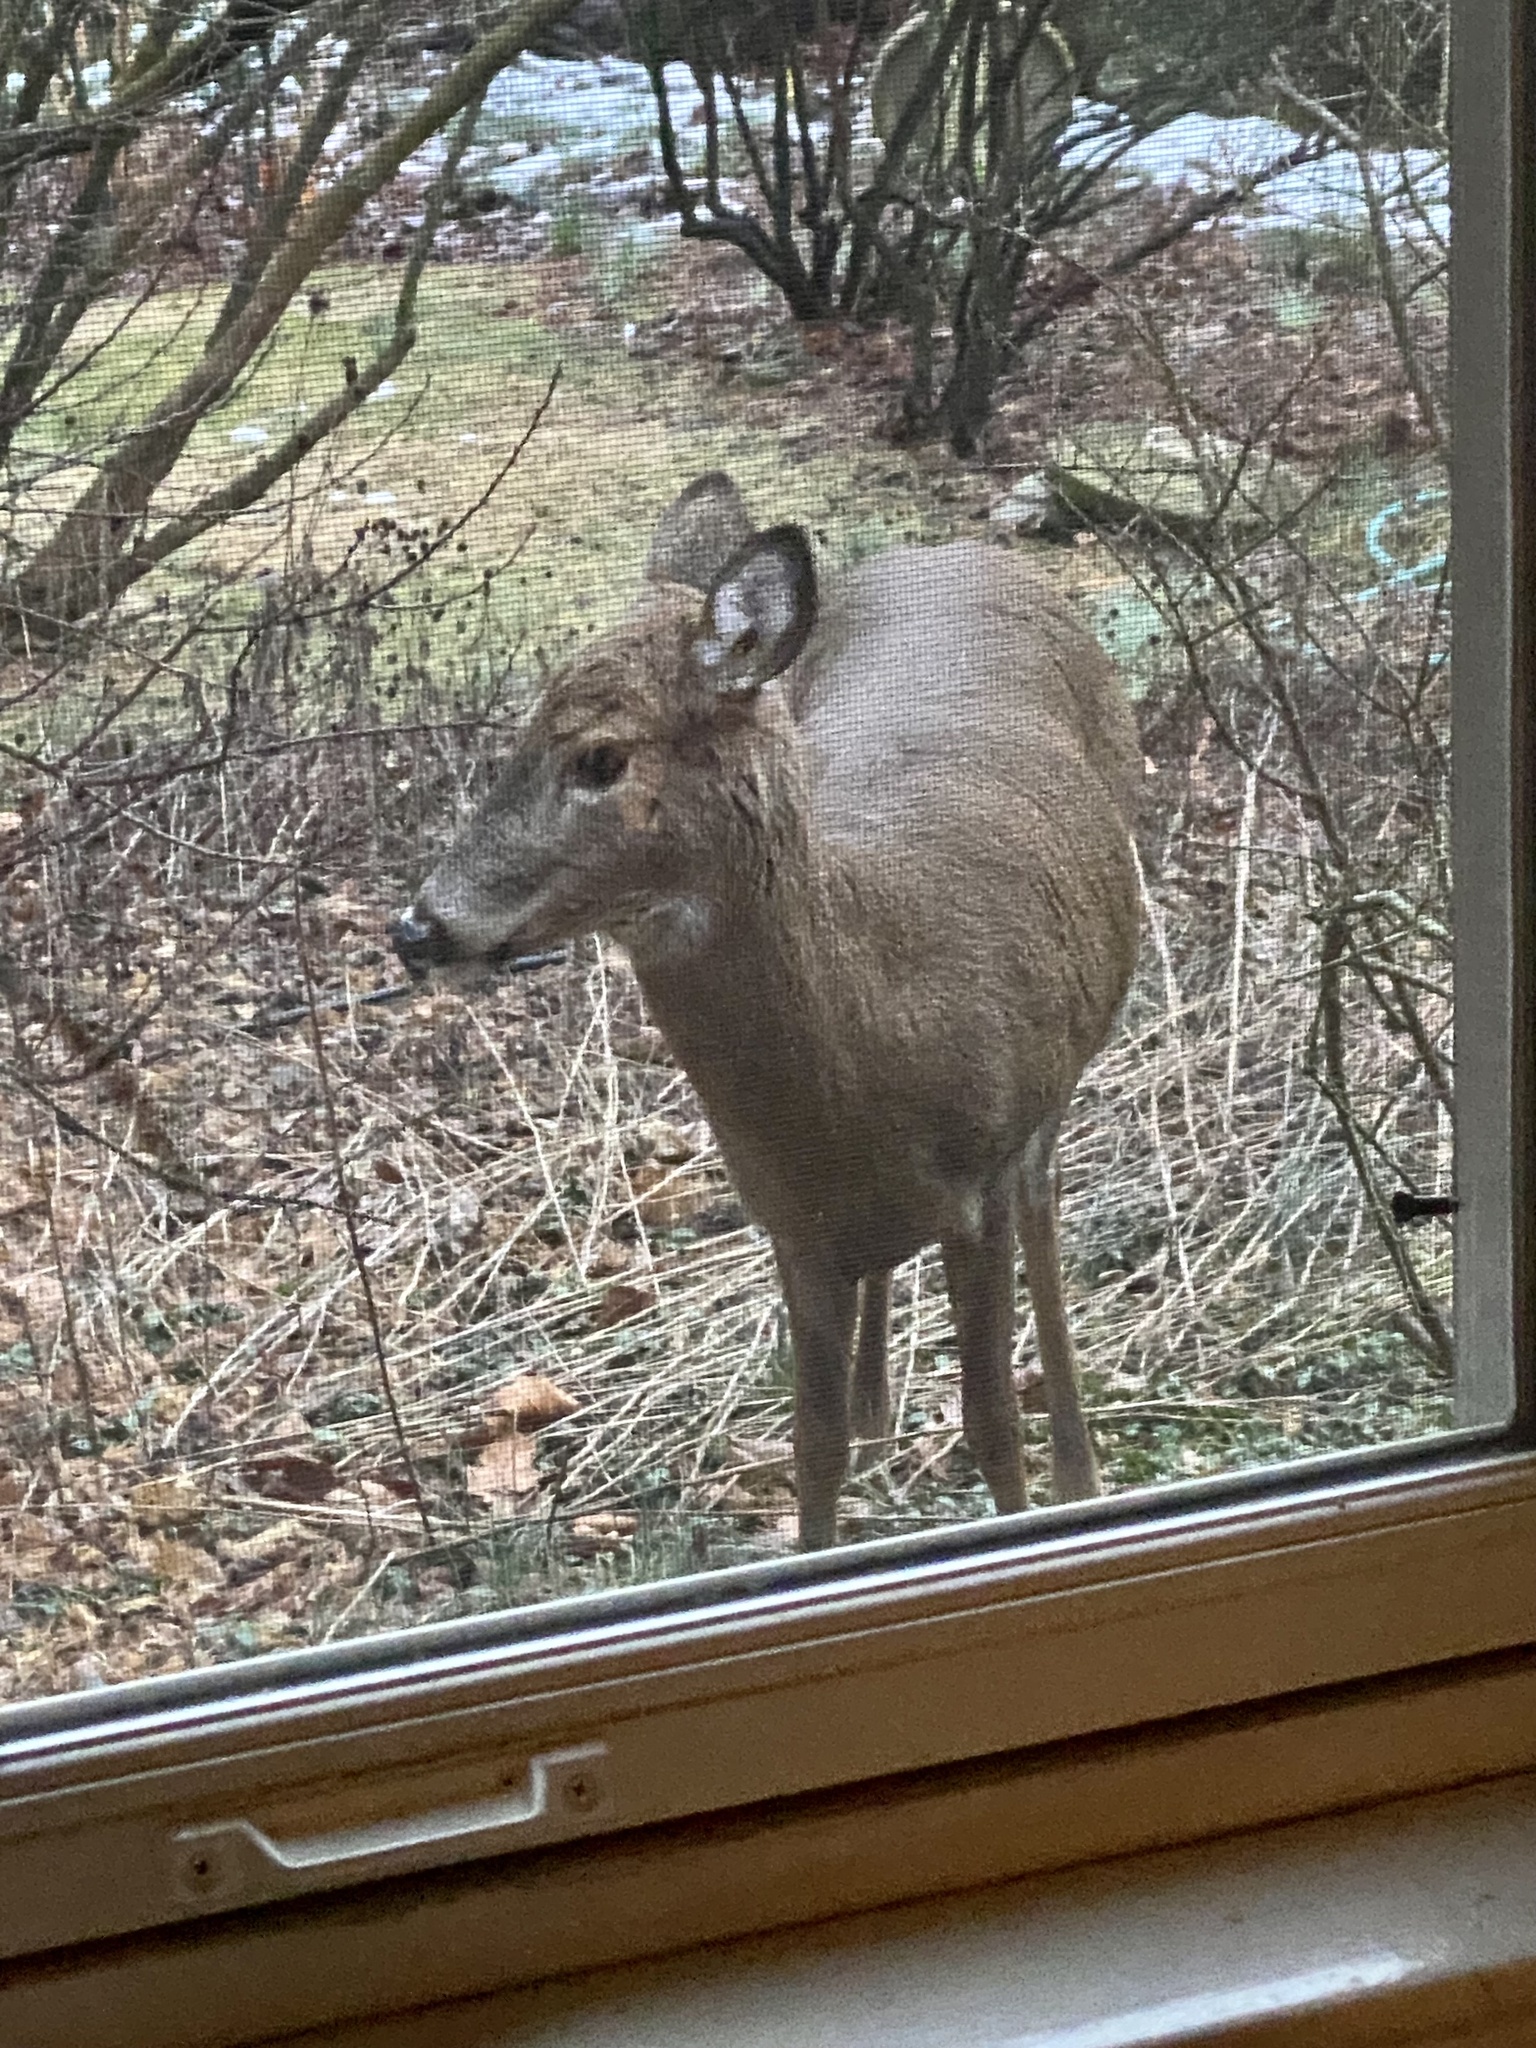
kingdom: Animalia
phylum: Chordata
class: Mammalia
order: Artiodactyla
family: Cervidae
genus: Odocoileus
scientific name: Odocoileus virginianus
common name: White-tailed deer
